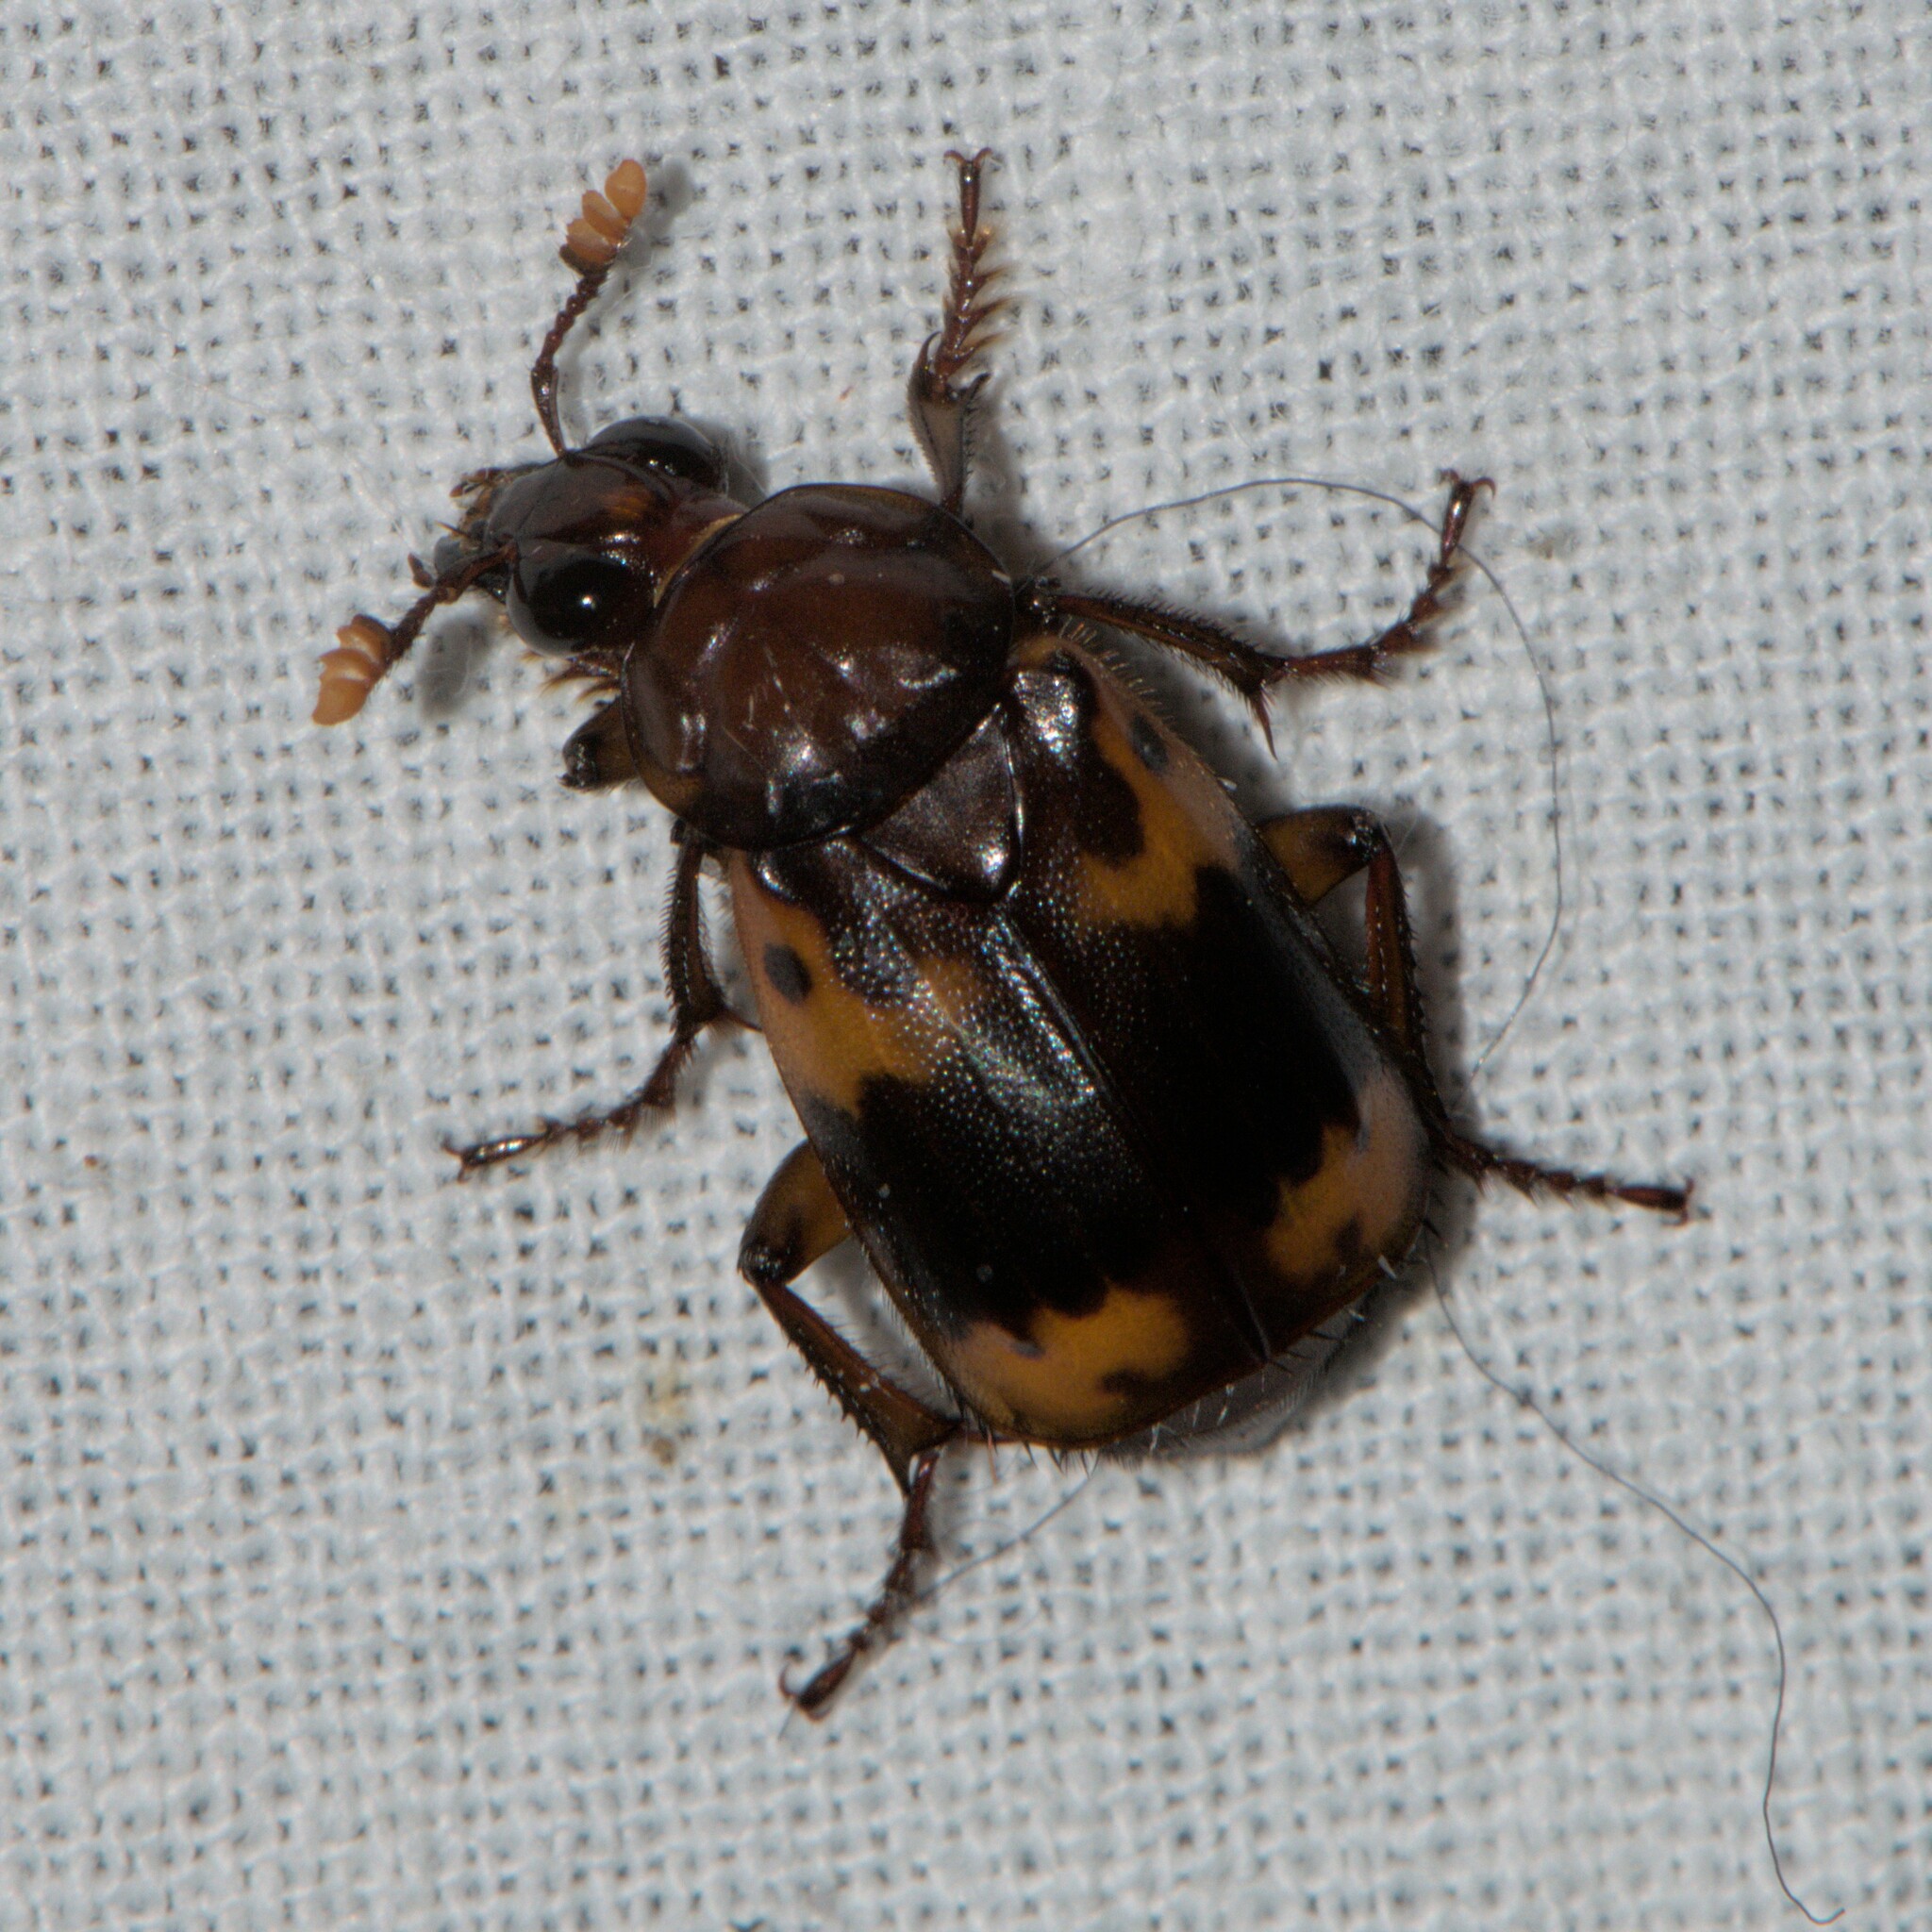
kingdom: Animalia
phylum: Arthropoda
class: Insecta
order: Coleoptera
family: Staphylinidae
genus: Nicrophorus
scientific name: Nicrophorus nepalensis
